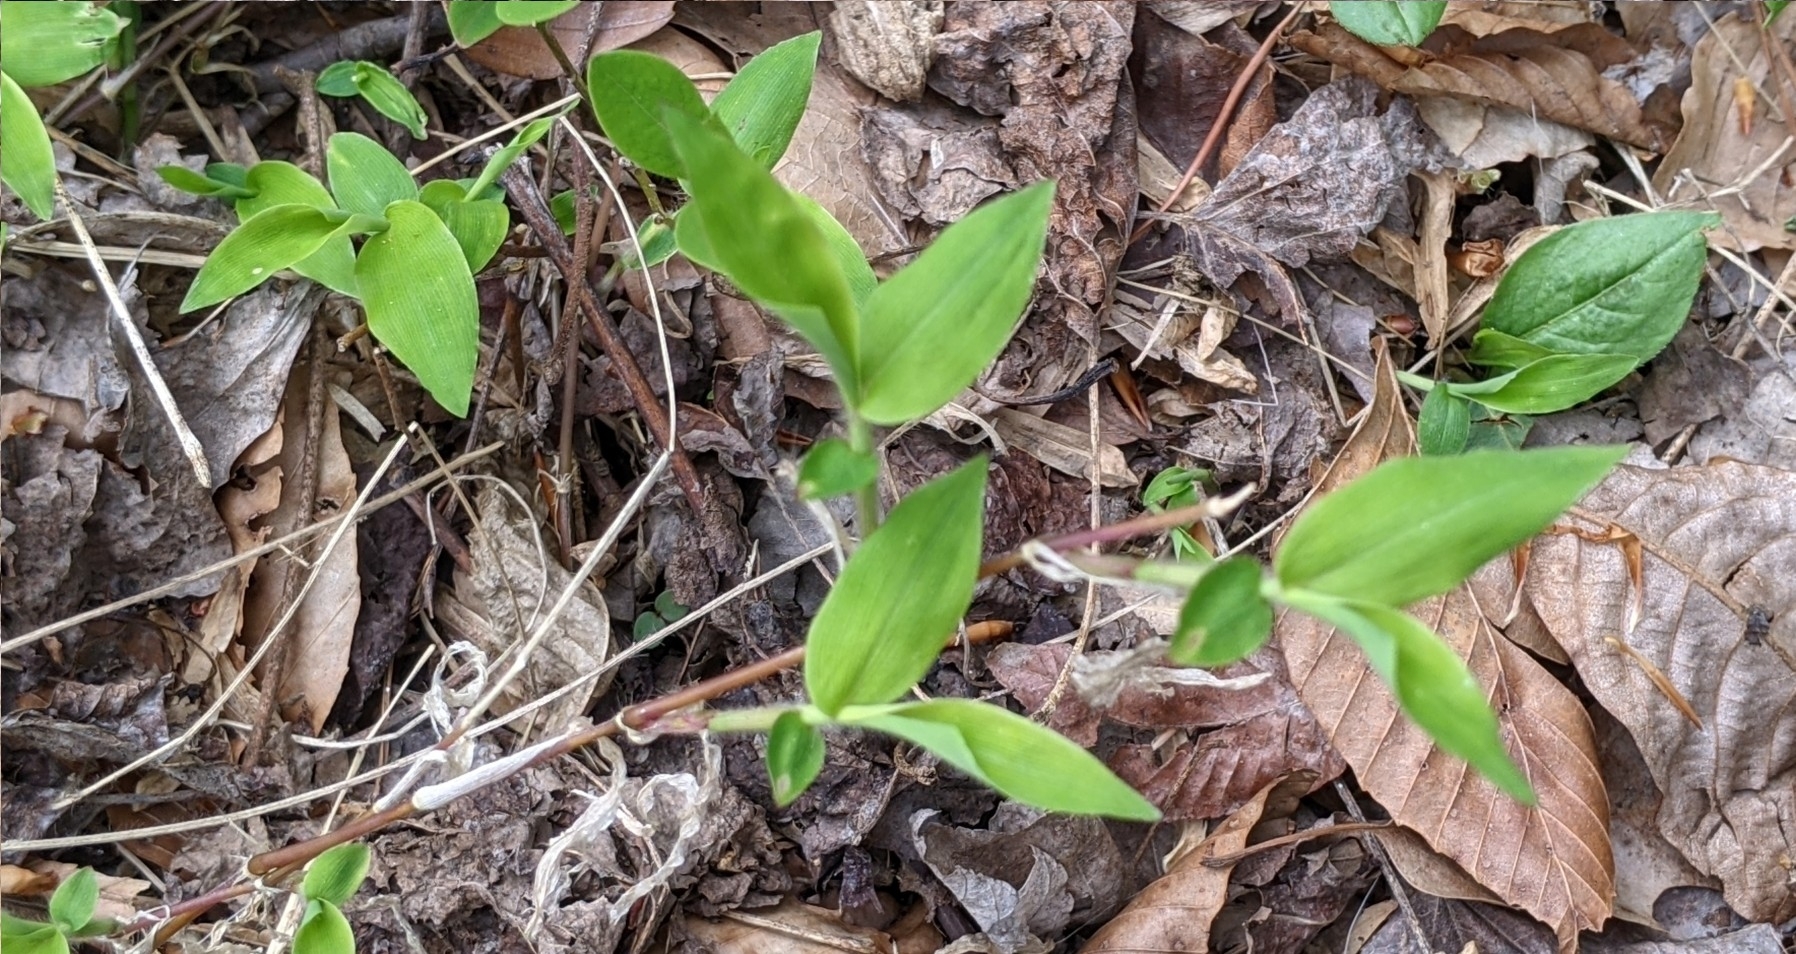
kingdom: Plantae
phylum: Tracheophyta
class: Liliopsida
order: Poales
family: Poaceae
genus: Oplismenus
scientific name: Oplismenus undulatifolius
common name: Wavyleaf basketgrass
